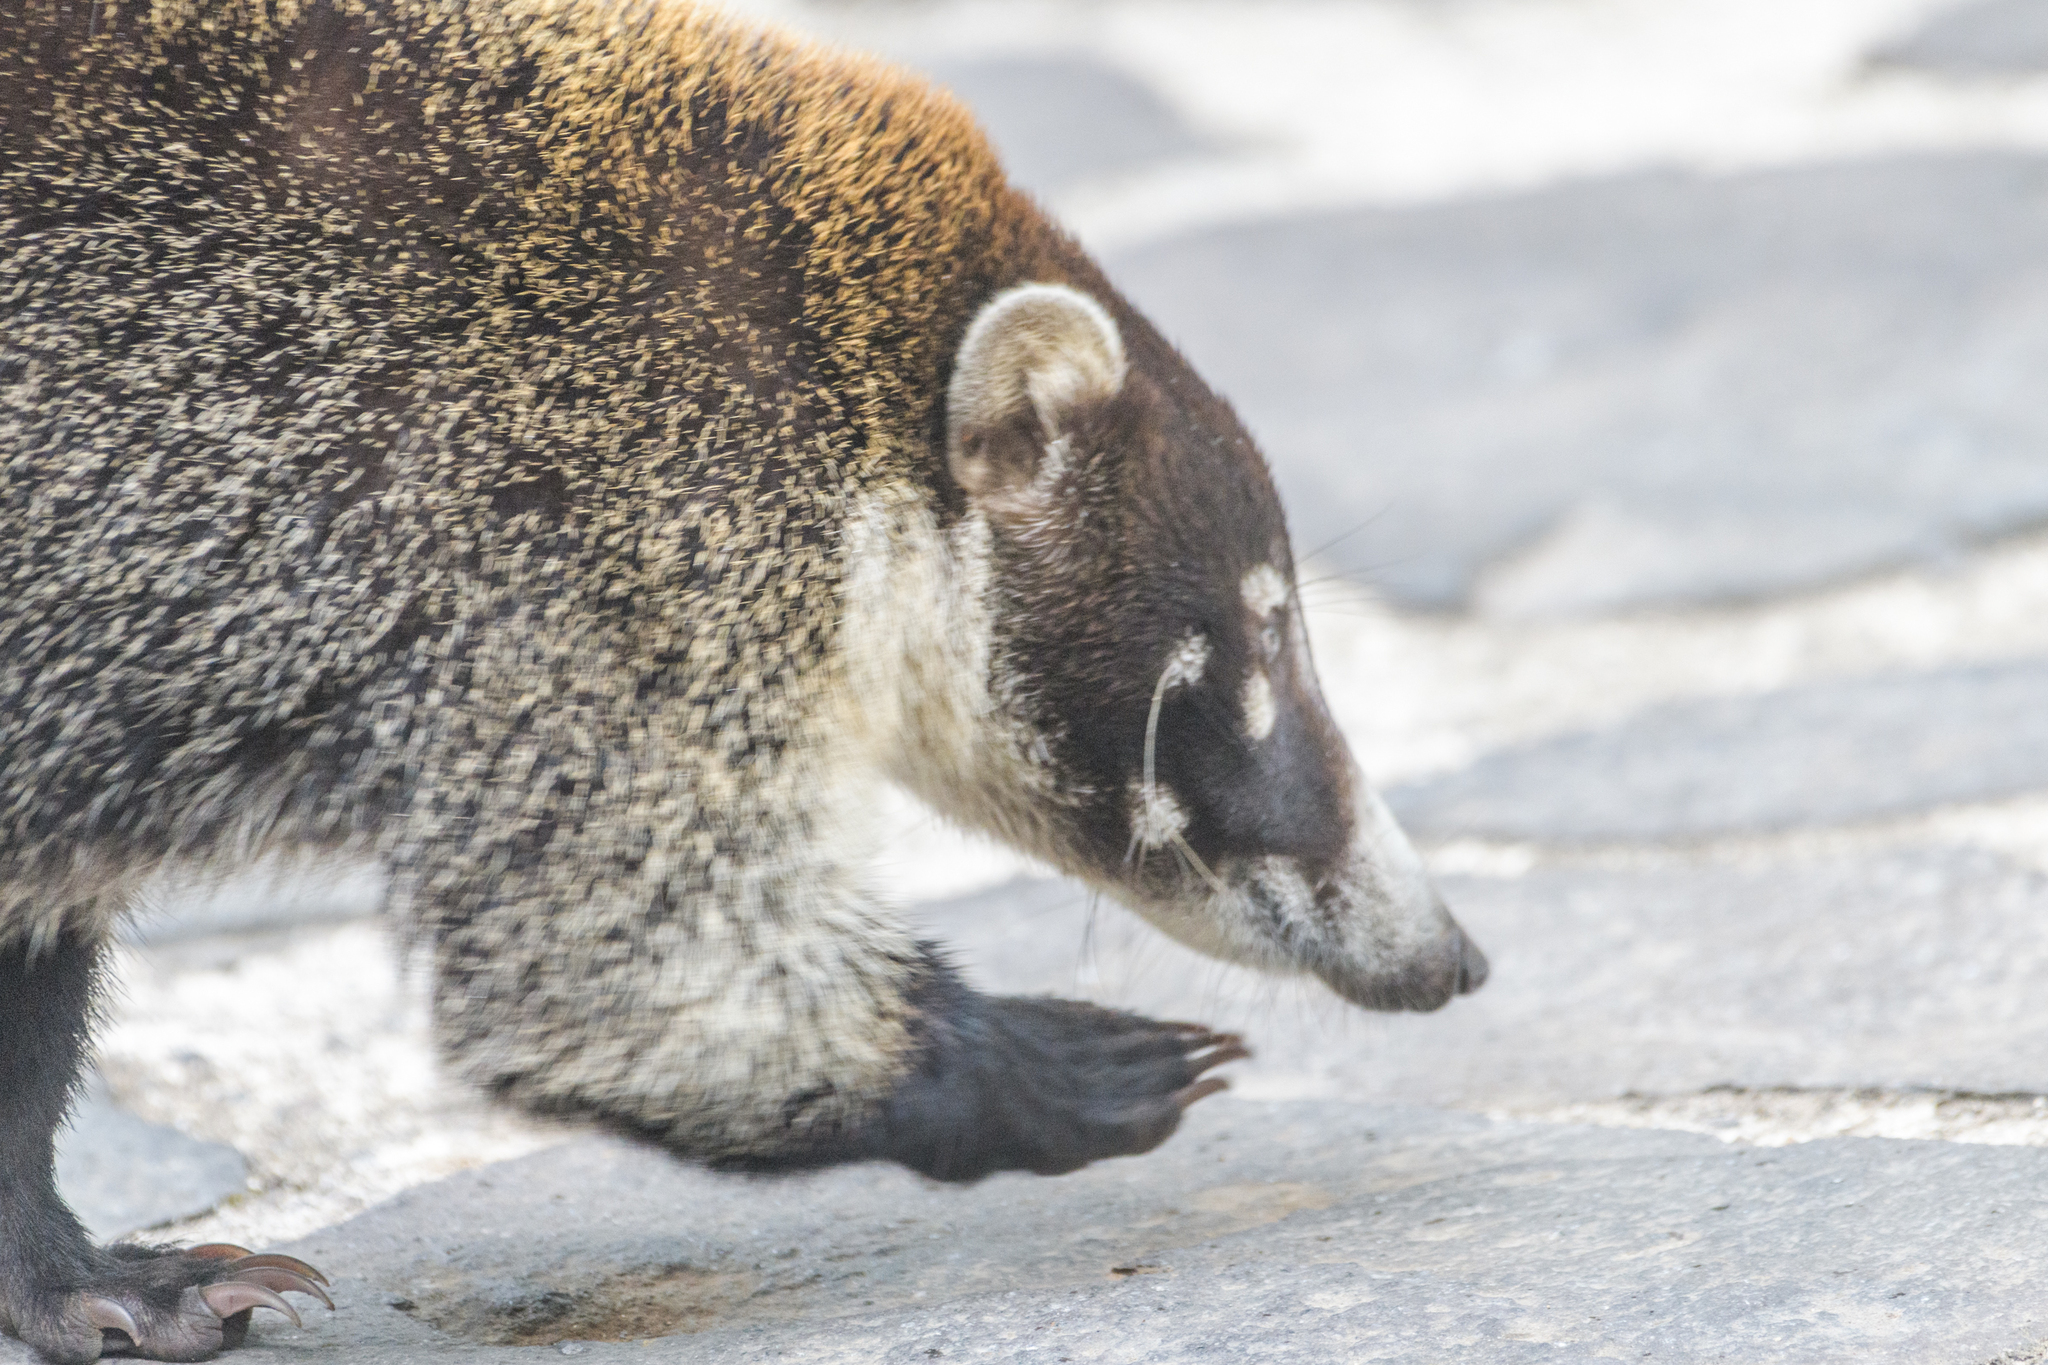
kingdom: Animalia
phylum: Chordata
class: Mammalia
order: Carnivora
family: Procyonidae
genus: Nasua
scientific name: Nasua narica
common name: White-nosed coati
